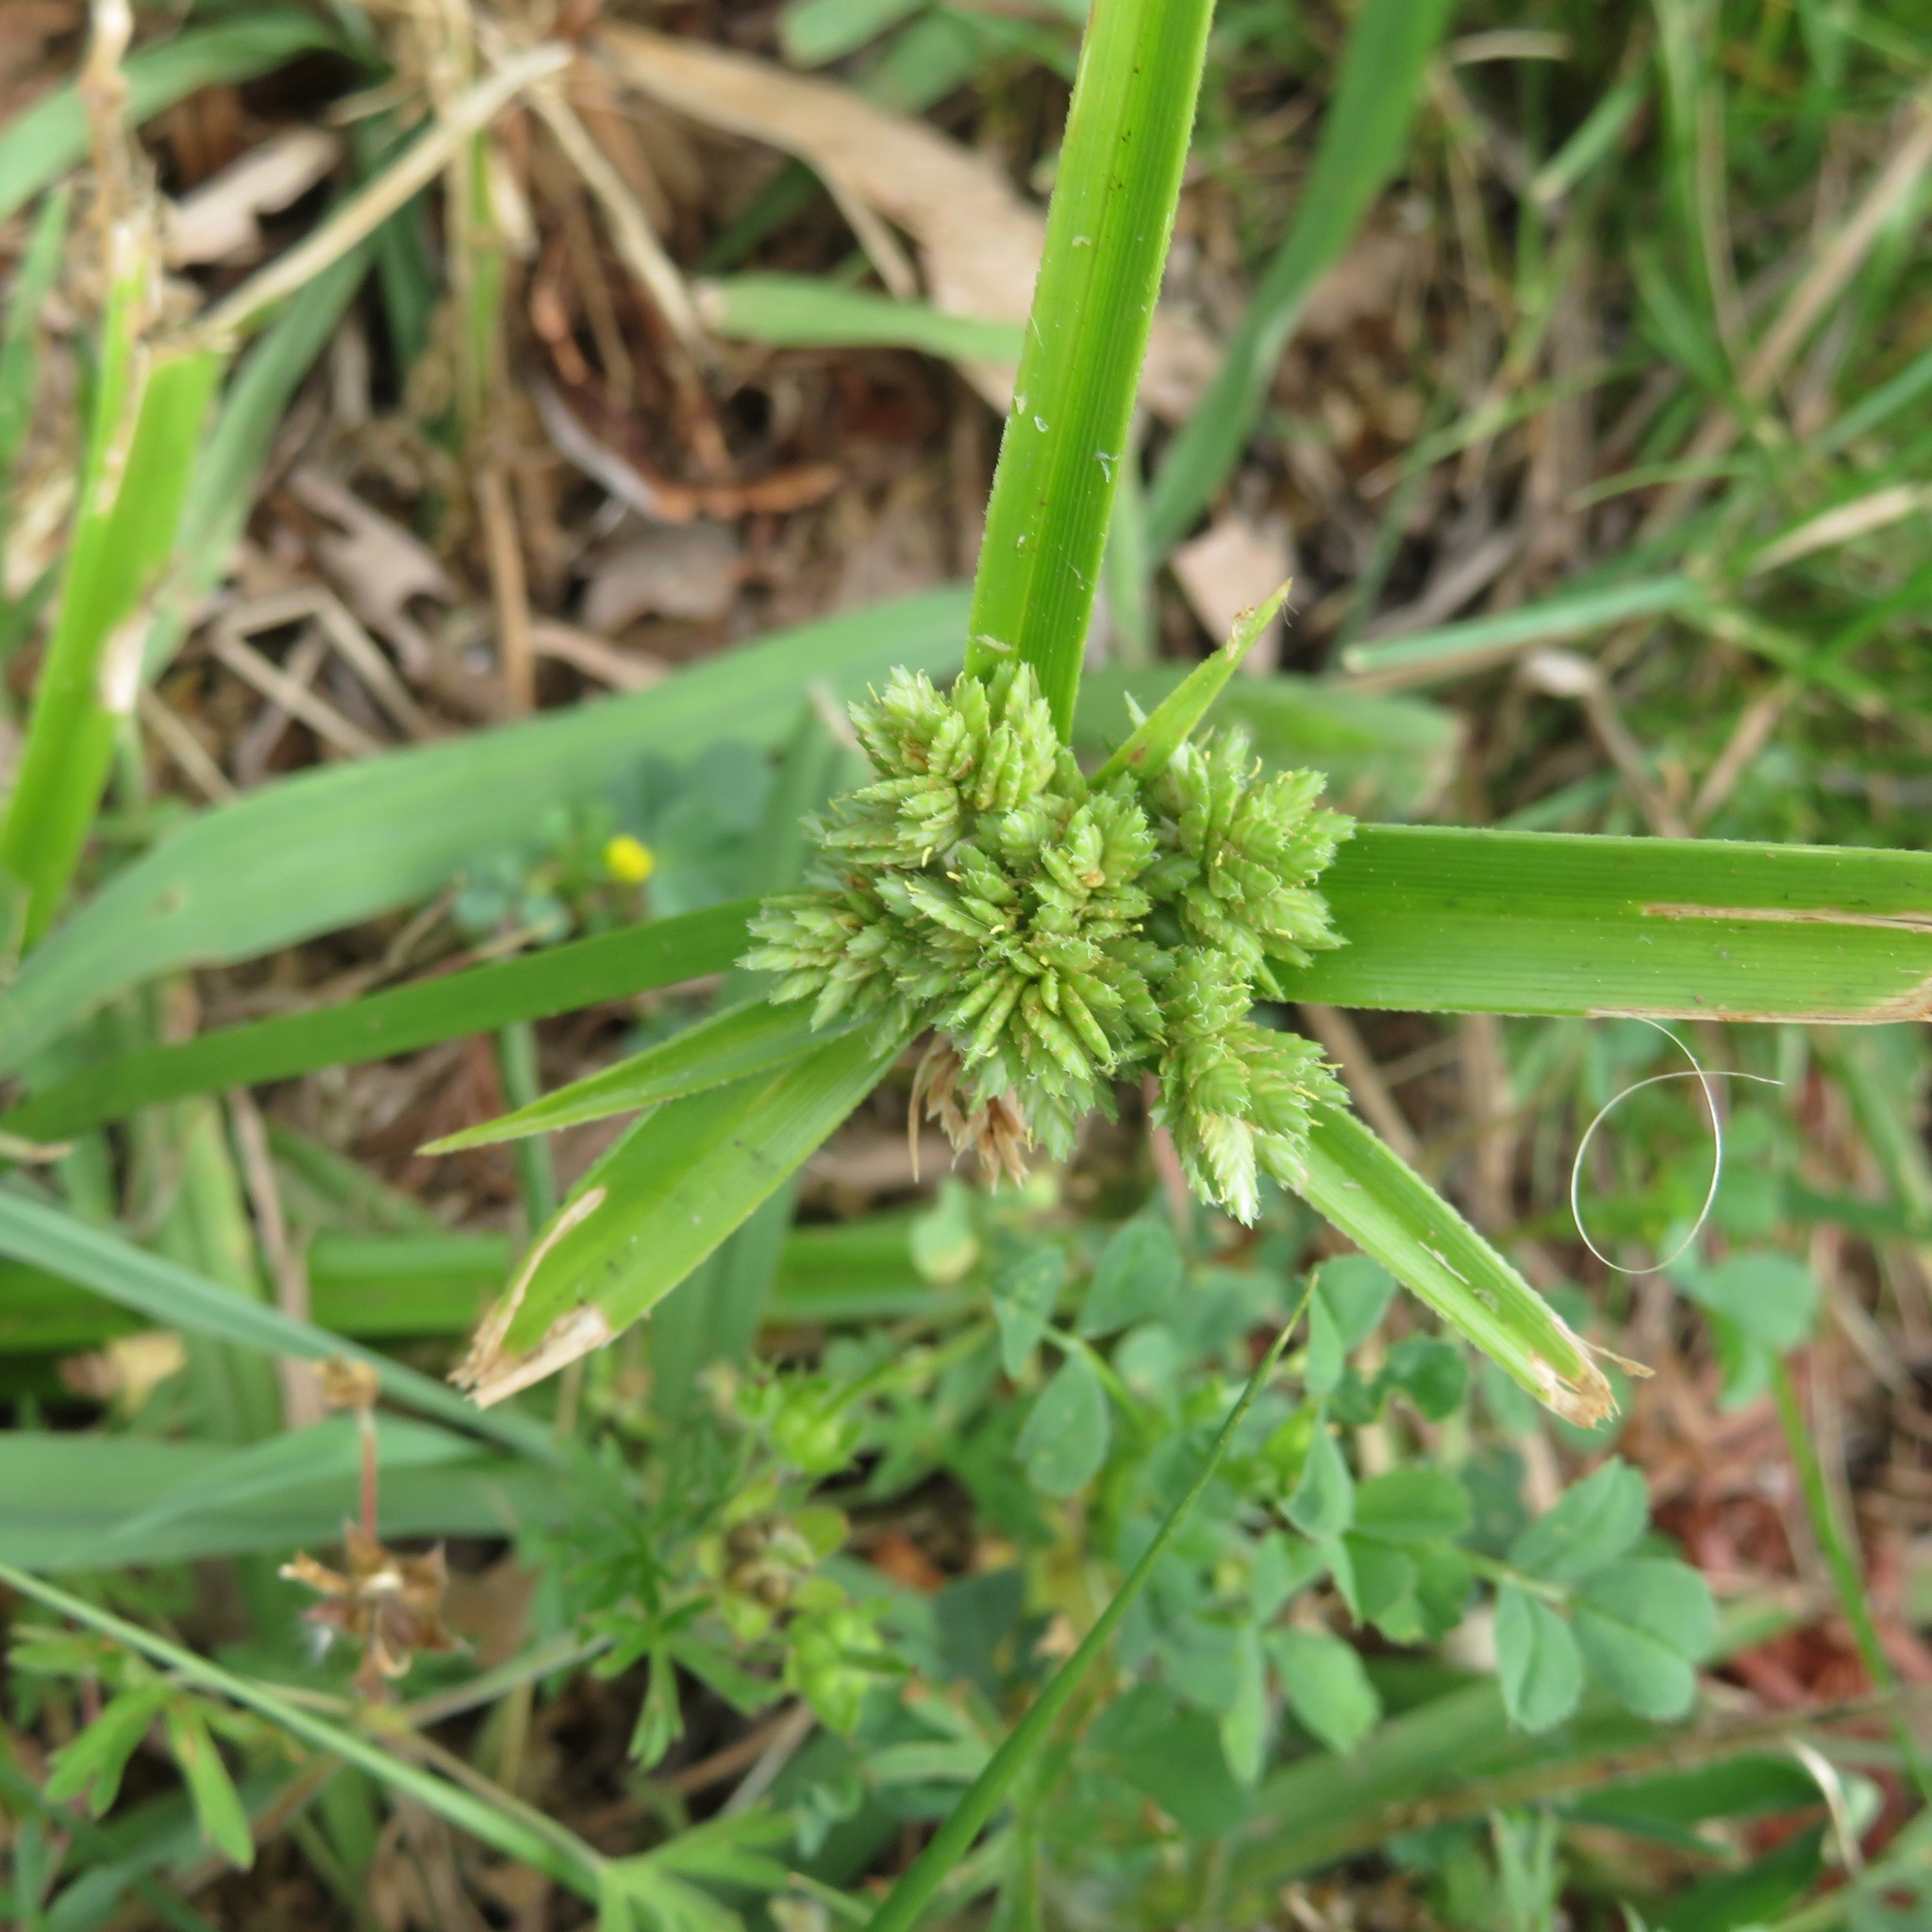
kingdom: Plantae
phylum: Tracheophyta
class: Liliopsida
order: Poales
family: Cyperaceae
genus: Cyperus
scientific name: Cyperus eragrostis
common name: Tall flatsedge
